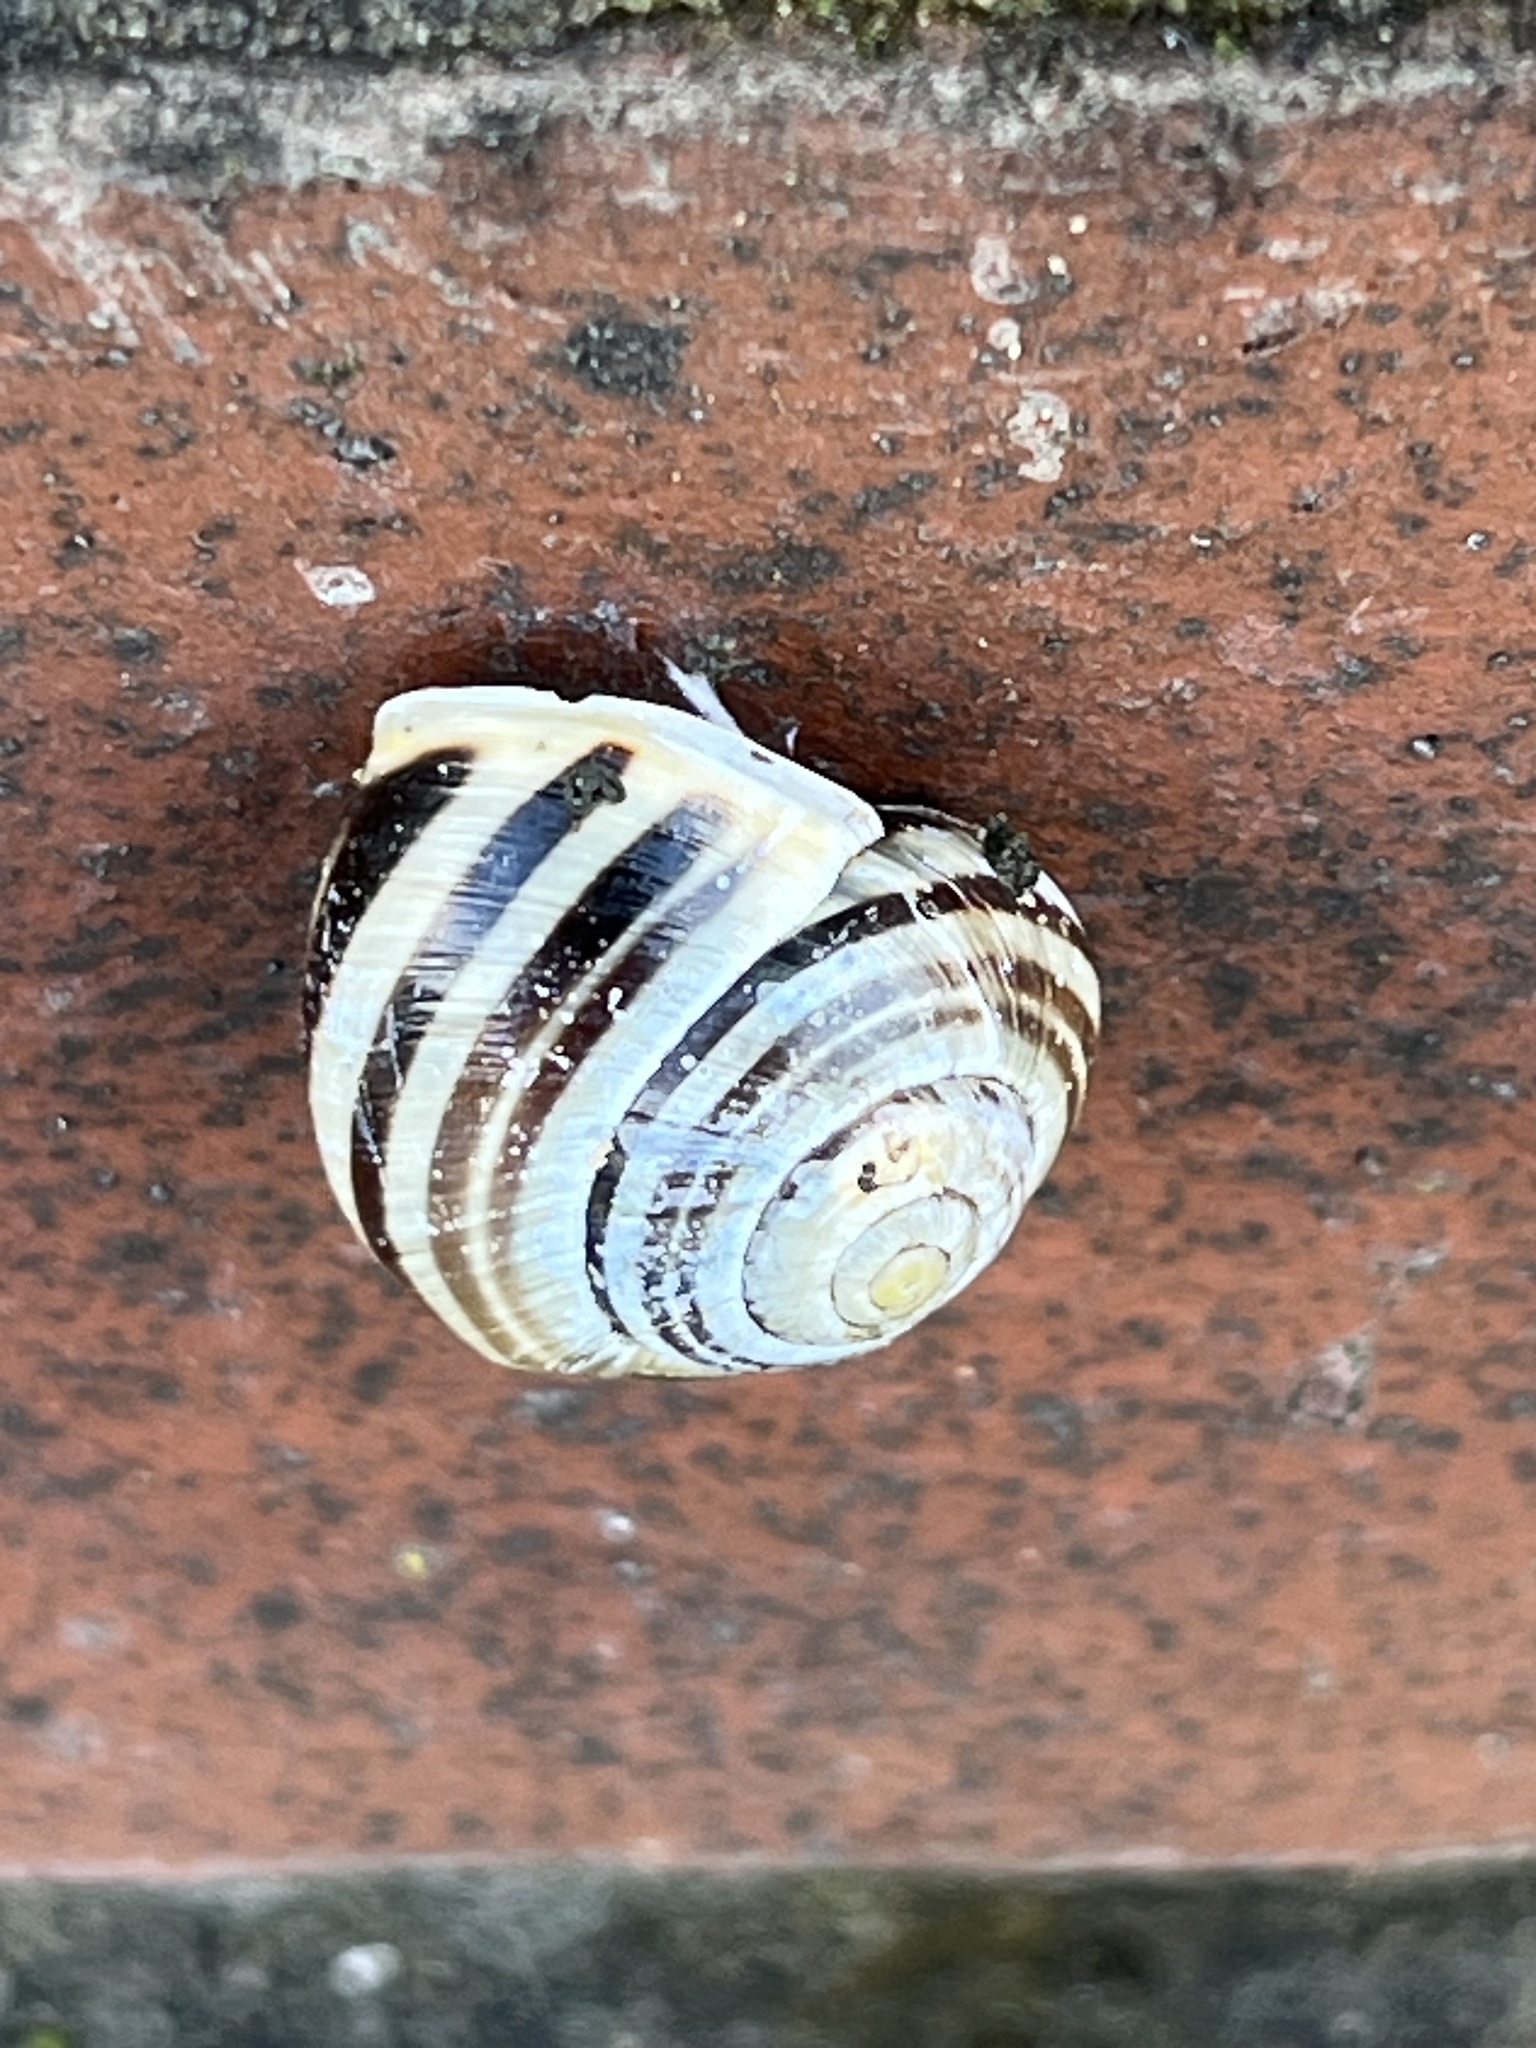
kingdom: Animalia
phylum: Mollusca
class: Gastropoda
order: Stylommatophora
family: Helicidae
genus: Cepaea
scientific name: Cepaea hortensis
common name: White-lip gardensnail
